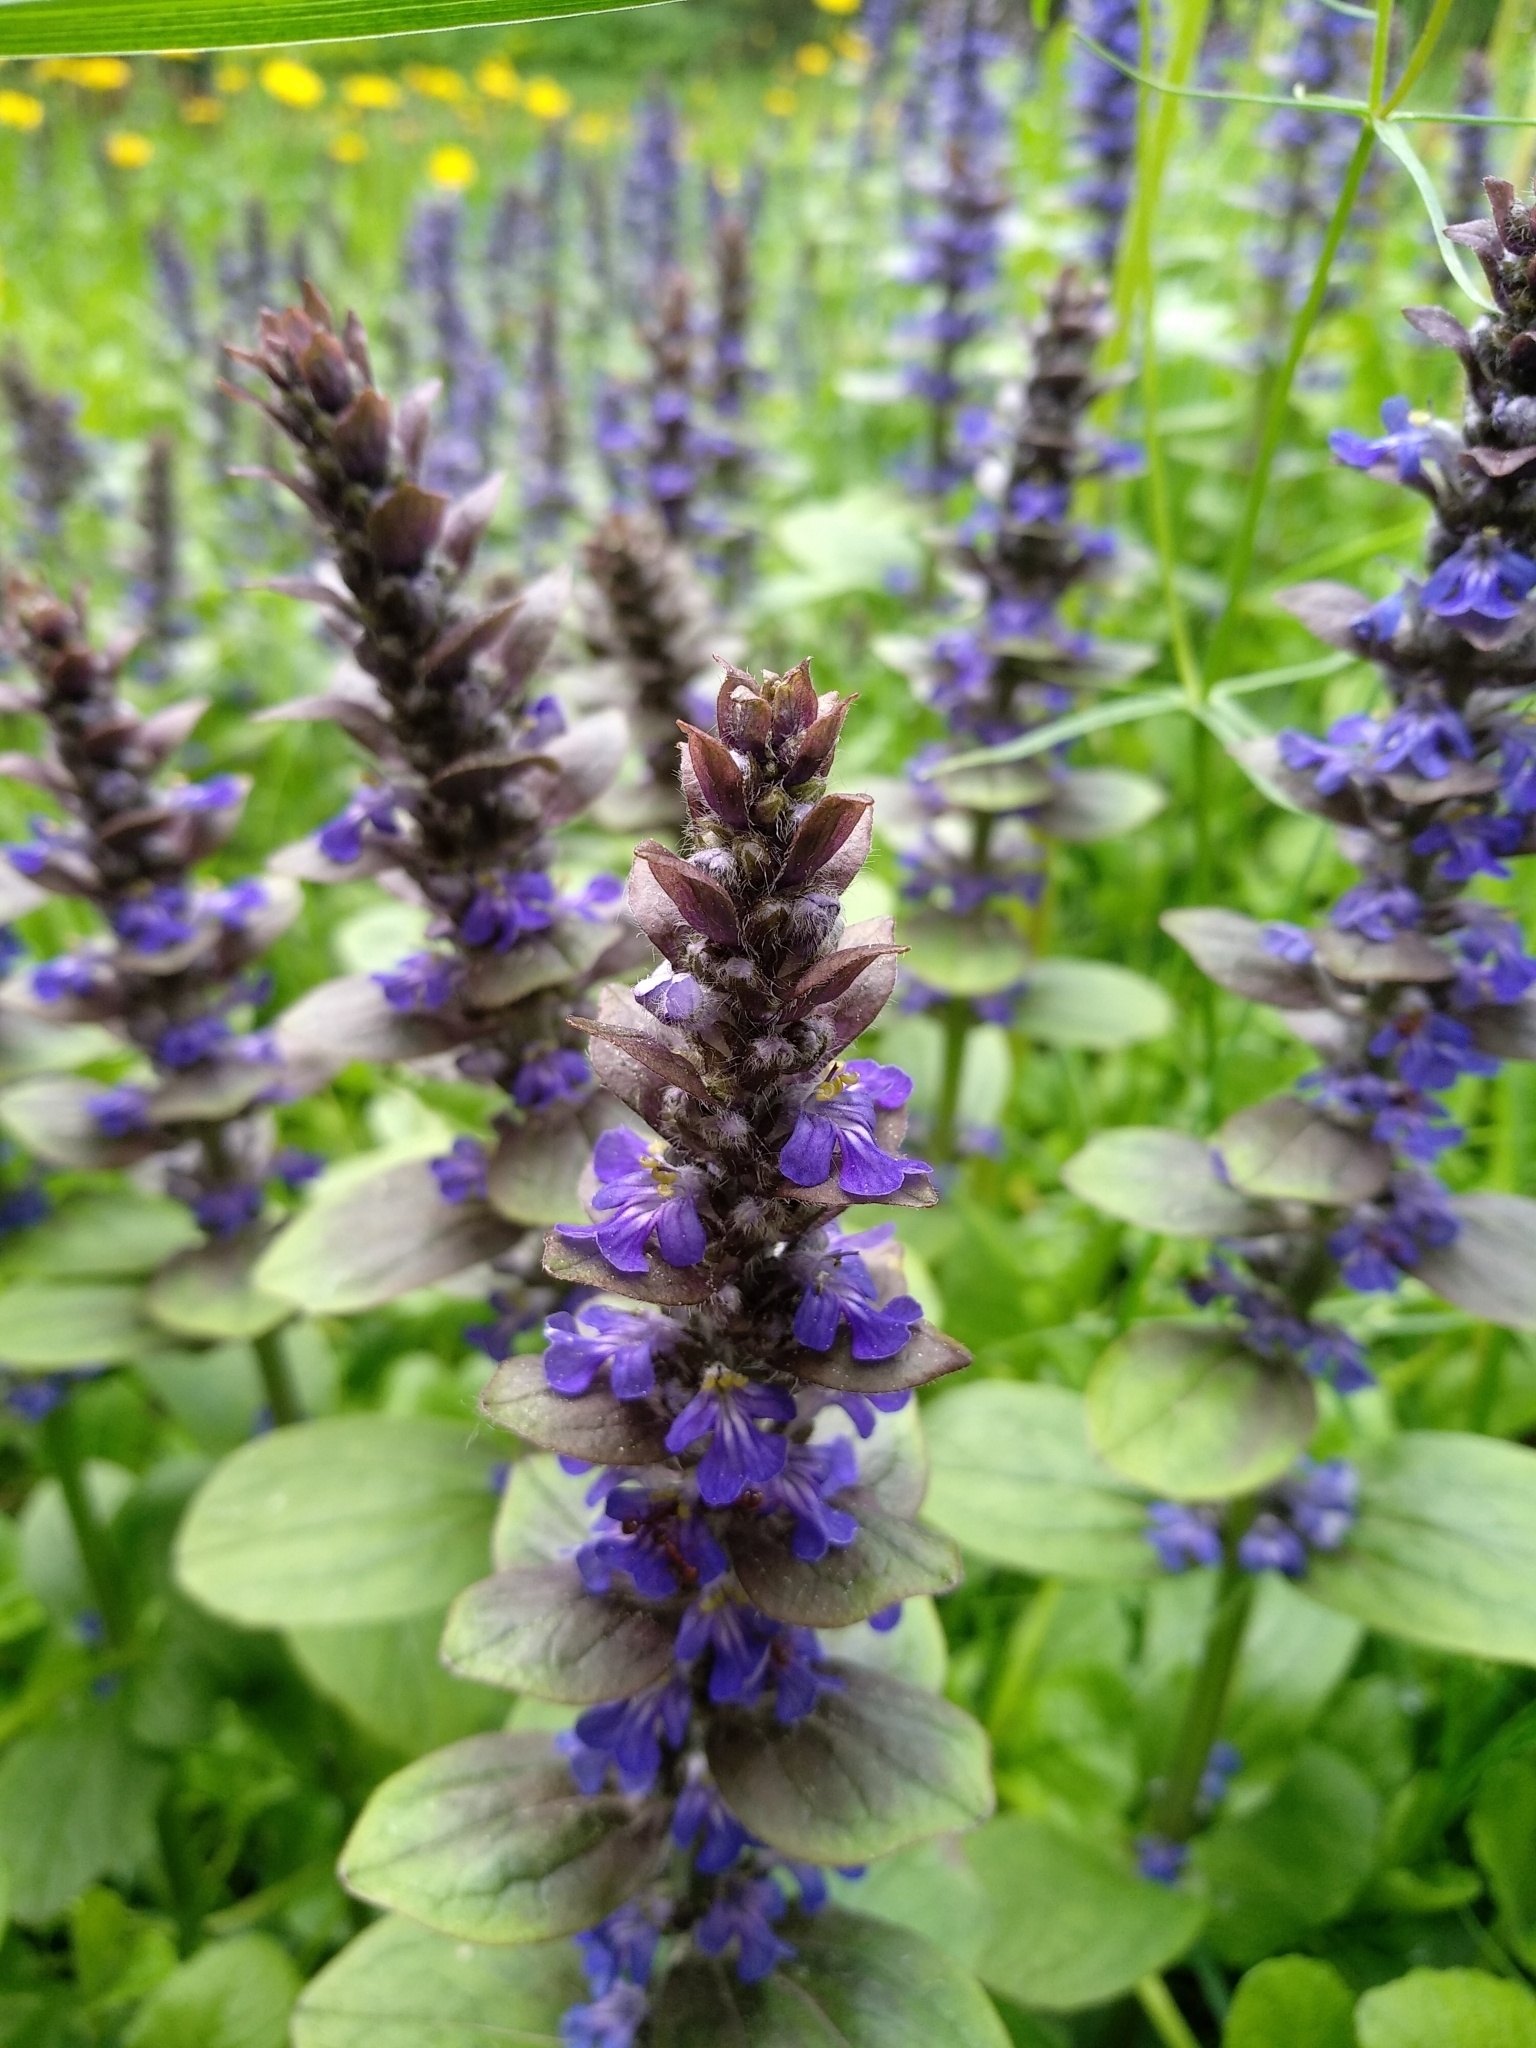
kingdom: Plantae
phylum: Tracheophyta
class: Magnoliopsida
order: Lamiales
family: Lamiaceae
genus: Ajuga
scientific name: Ajuga reptans
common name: Bugle
